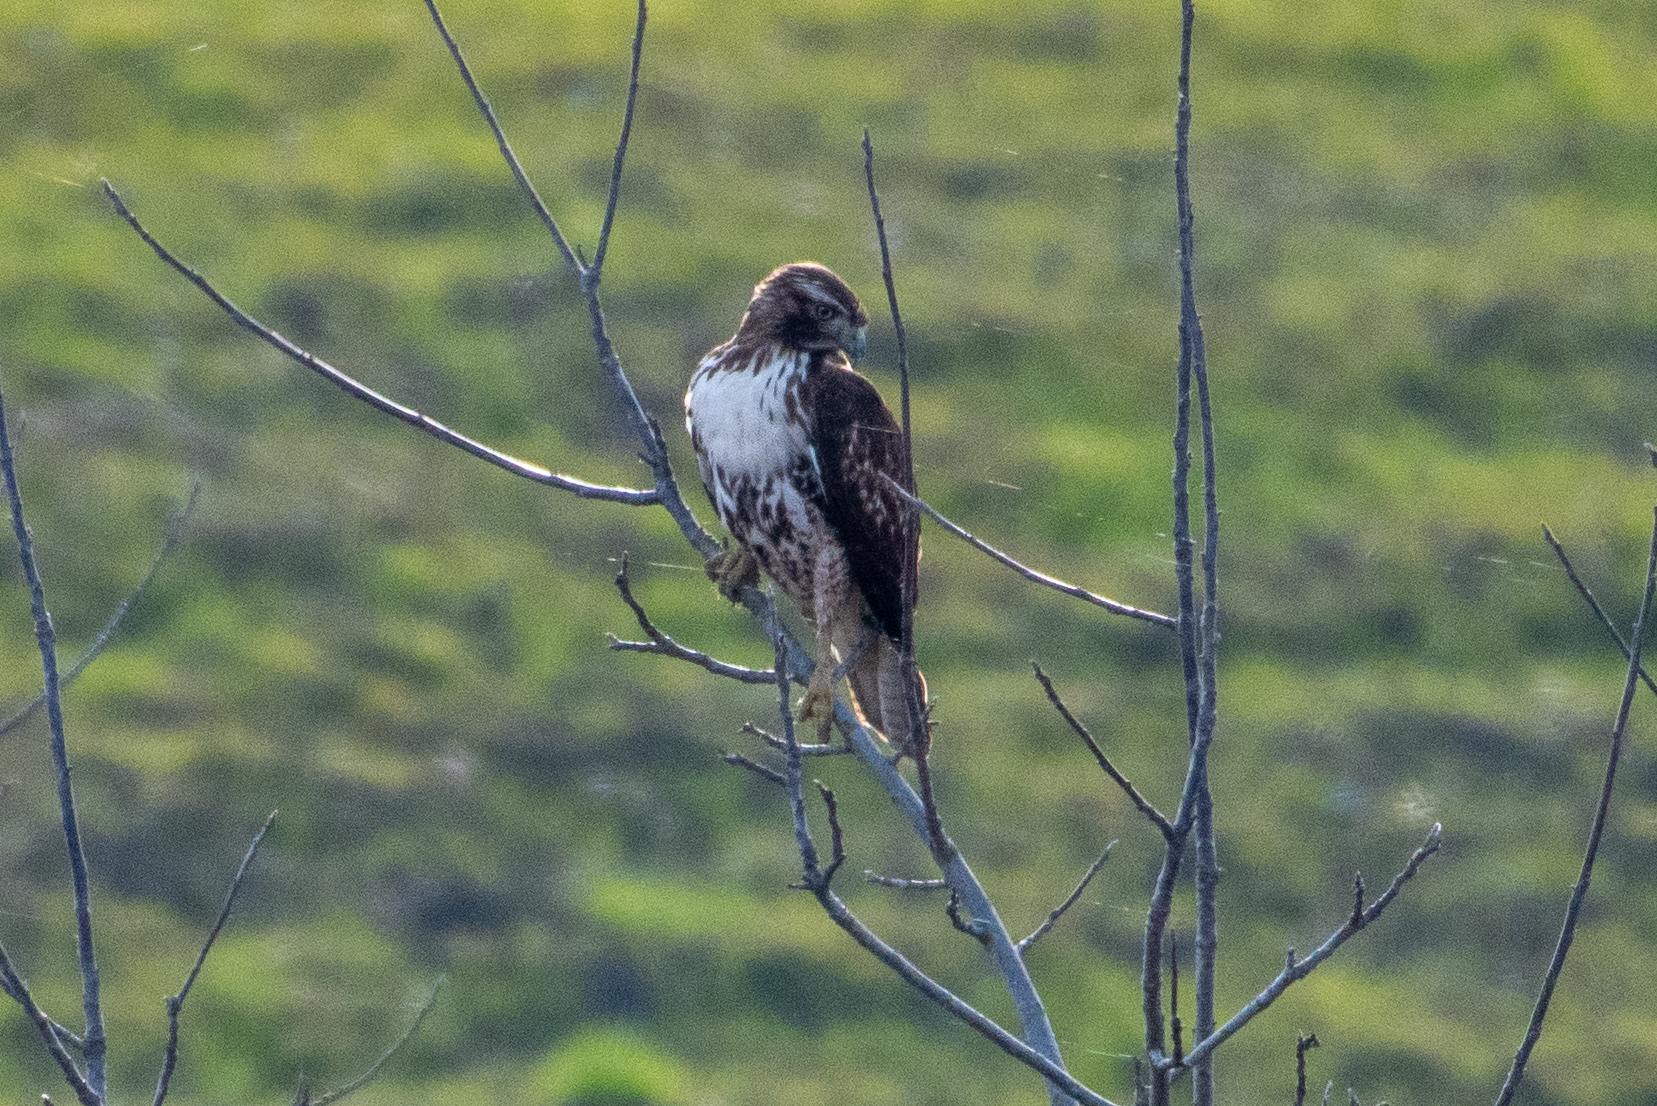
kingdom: Animalia
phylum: Chordata
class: Aves
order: Accipitriformes
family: Accipitridae
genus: Buteo
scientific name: Buteo jamaicensis
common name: Red-tailed hawk
